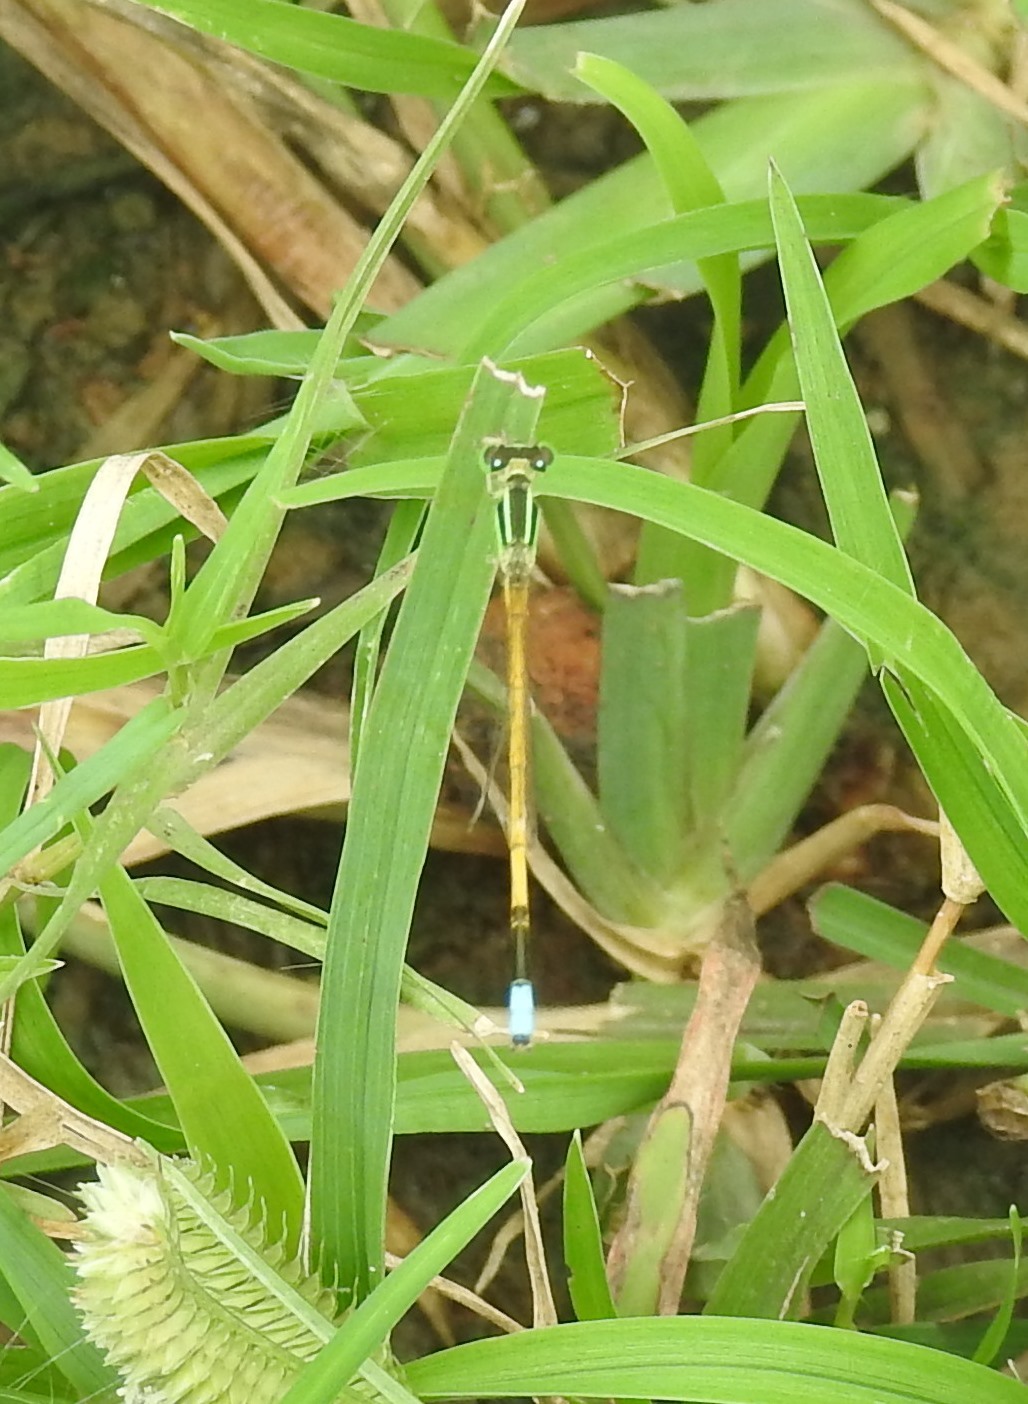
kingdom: Animalia
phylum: Arthropoda
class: Insecta
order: Odonata
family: Coenagrionidae
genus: Ischnura
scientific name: Ischnura rubilio
